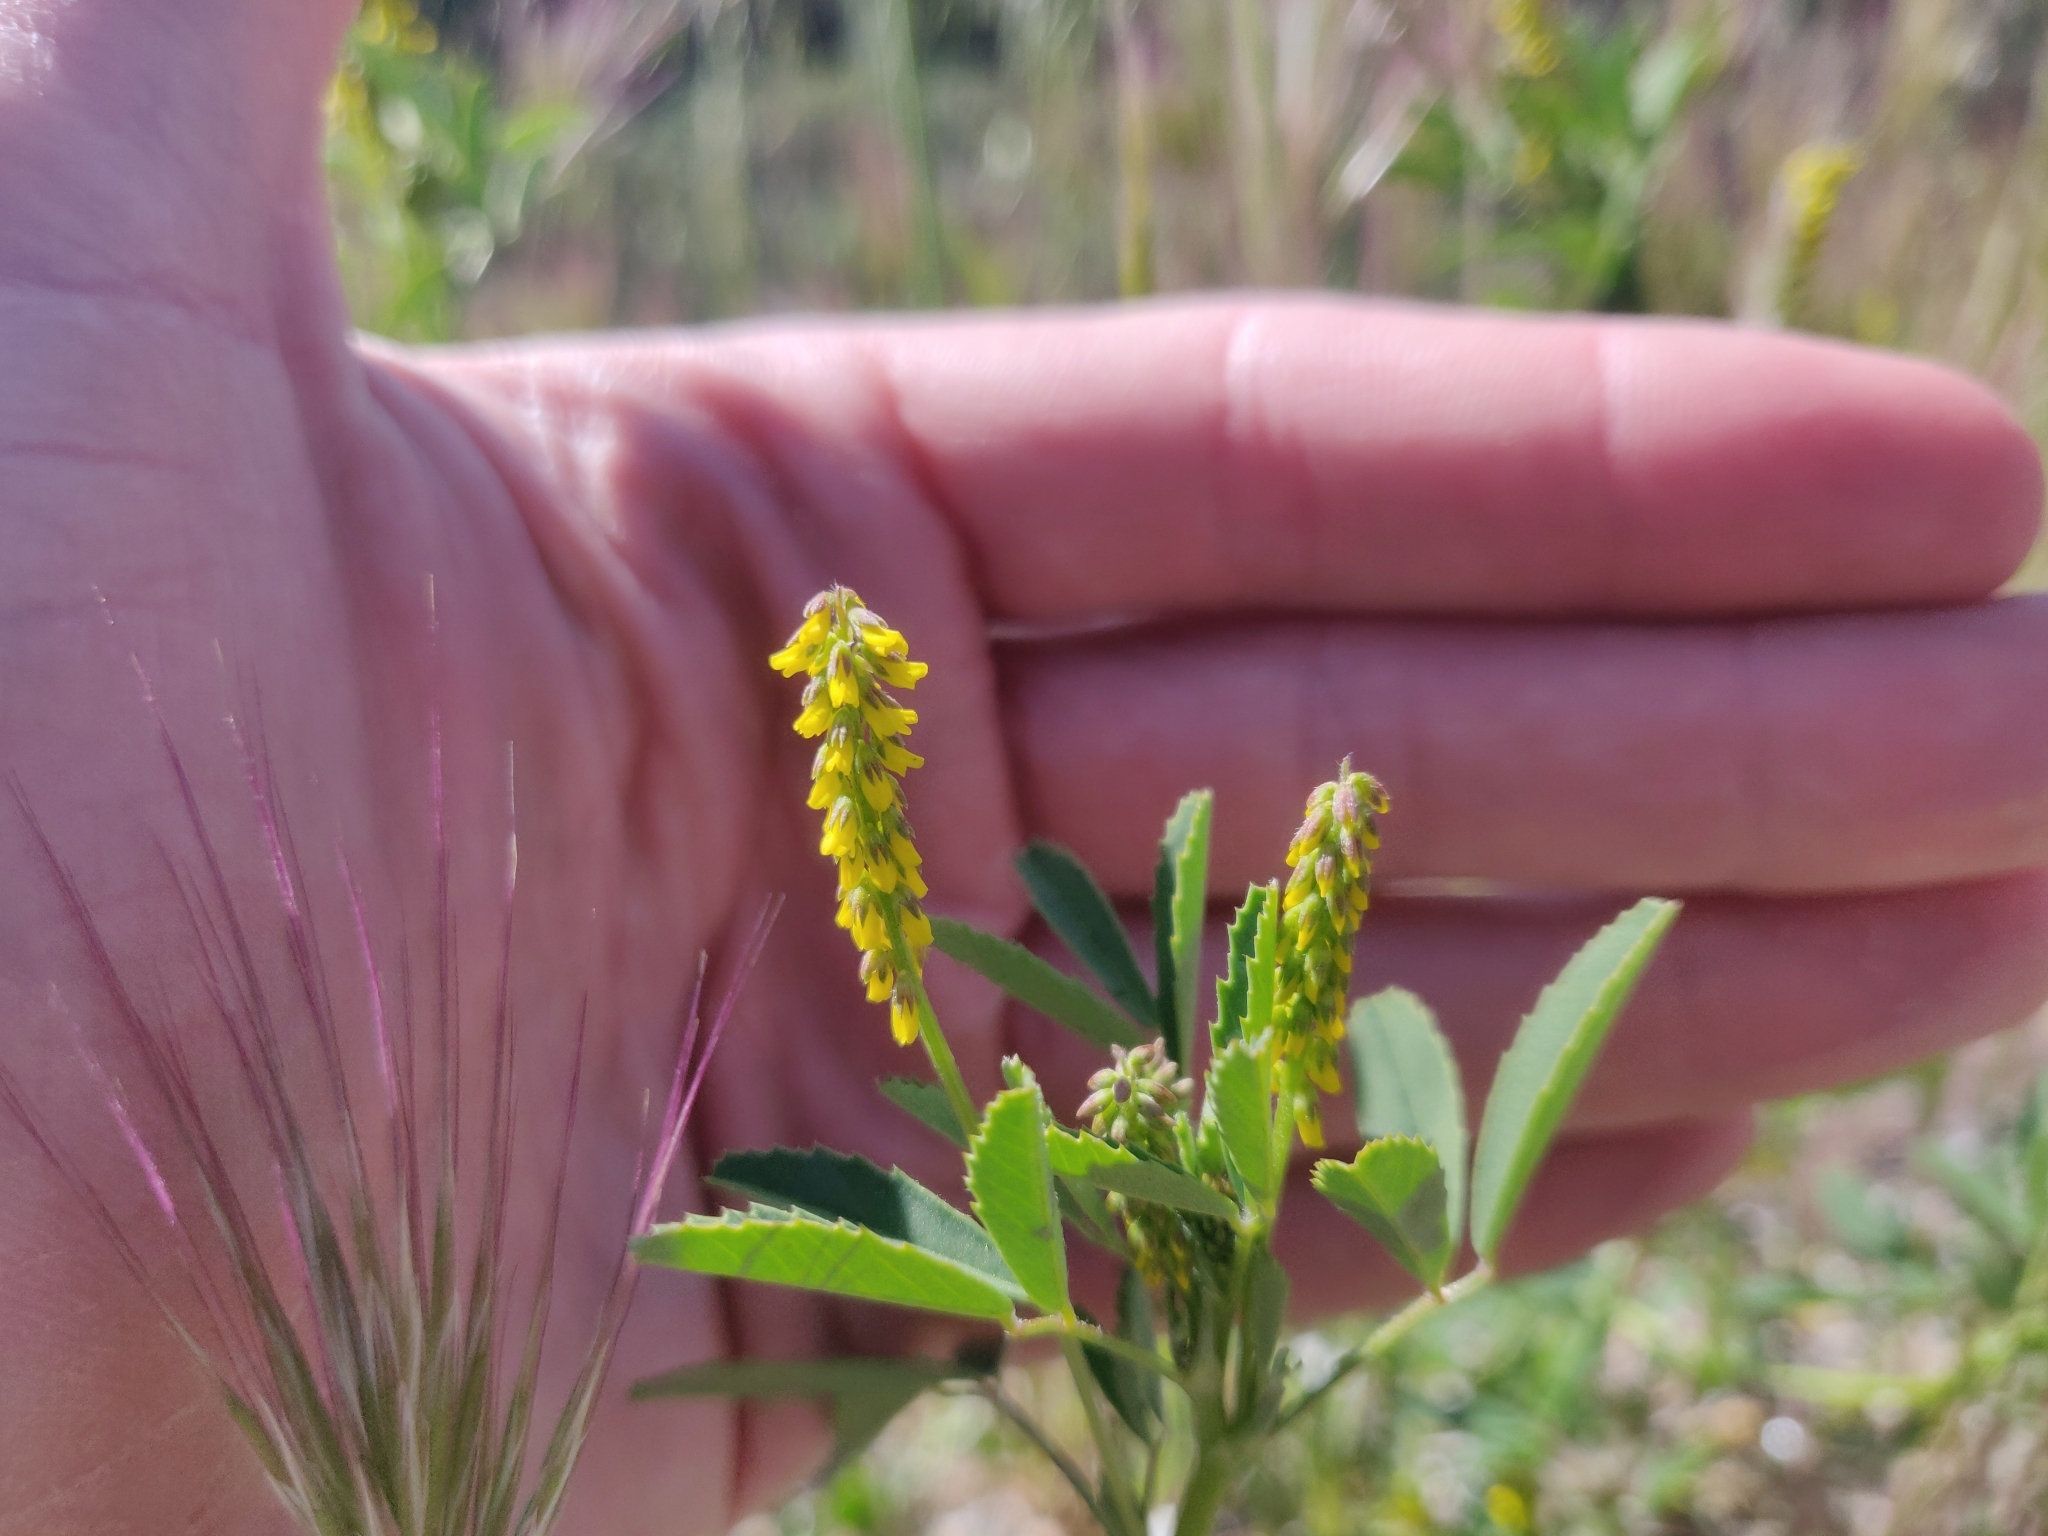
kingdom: Plantae
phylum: Tracheophyta
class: Magnoliopsida
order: Fabales
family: Fabaceae
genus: Melilotus
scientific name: Melilotus indicus
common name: Small melilot
